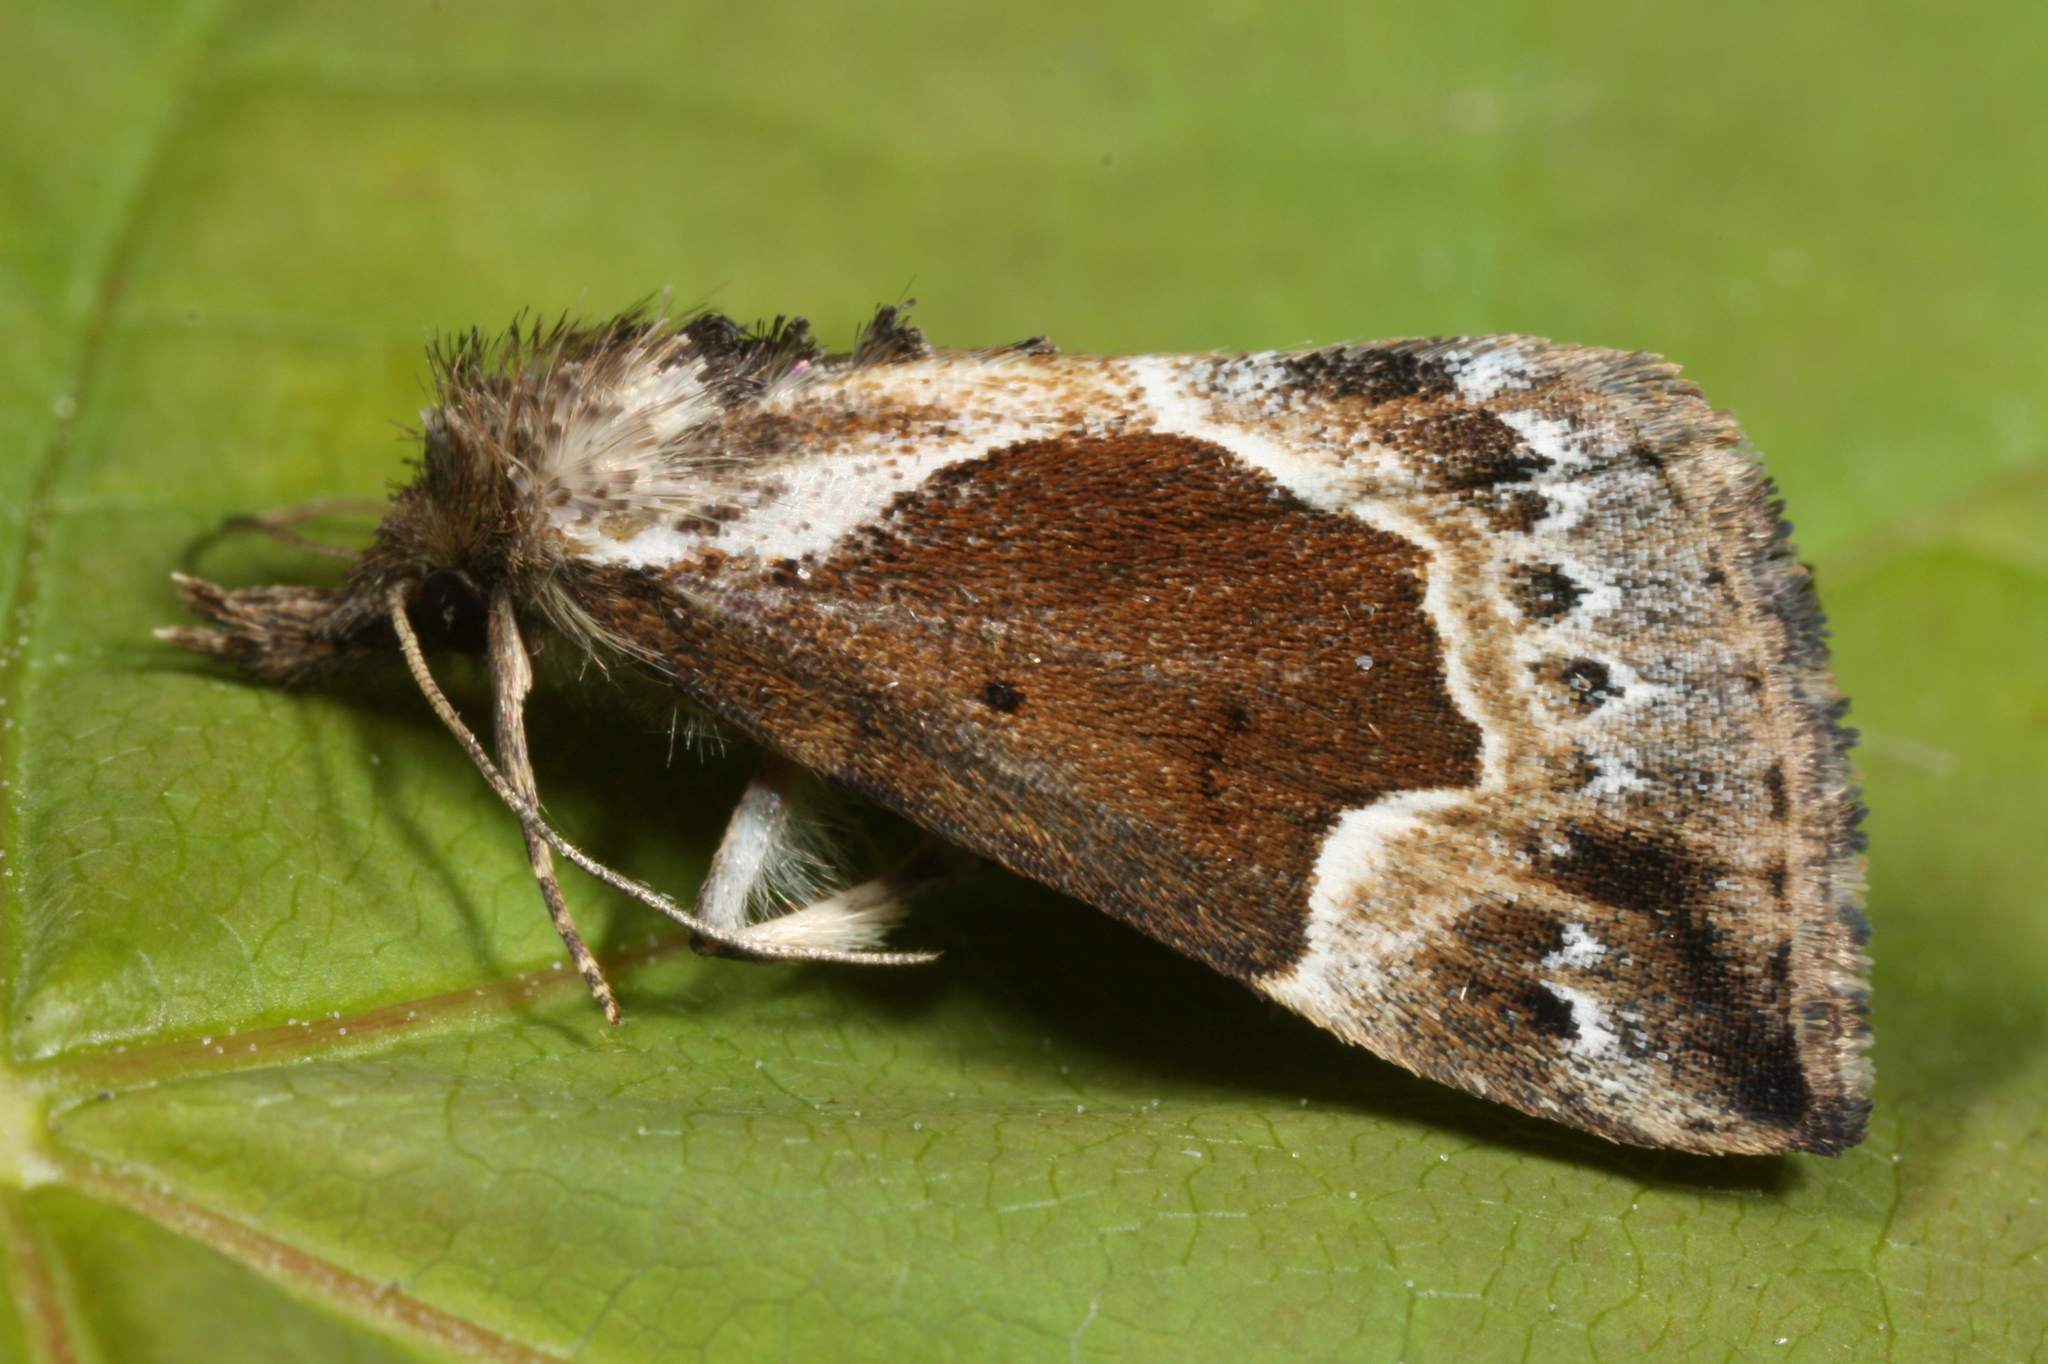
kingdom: Animalia
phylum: Arthropoda
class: Insecta
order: Lepidoptera
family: Erebidae
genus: Hypena
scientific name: Hypena crassalis
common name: Beautiful snout
